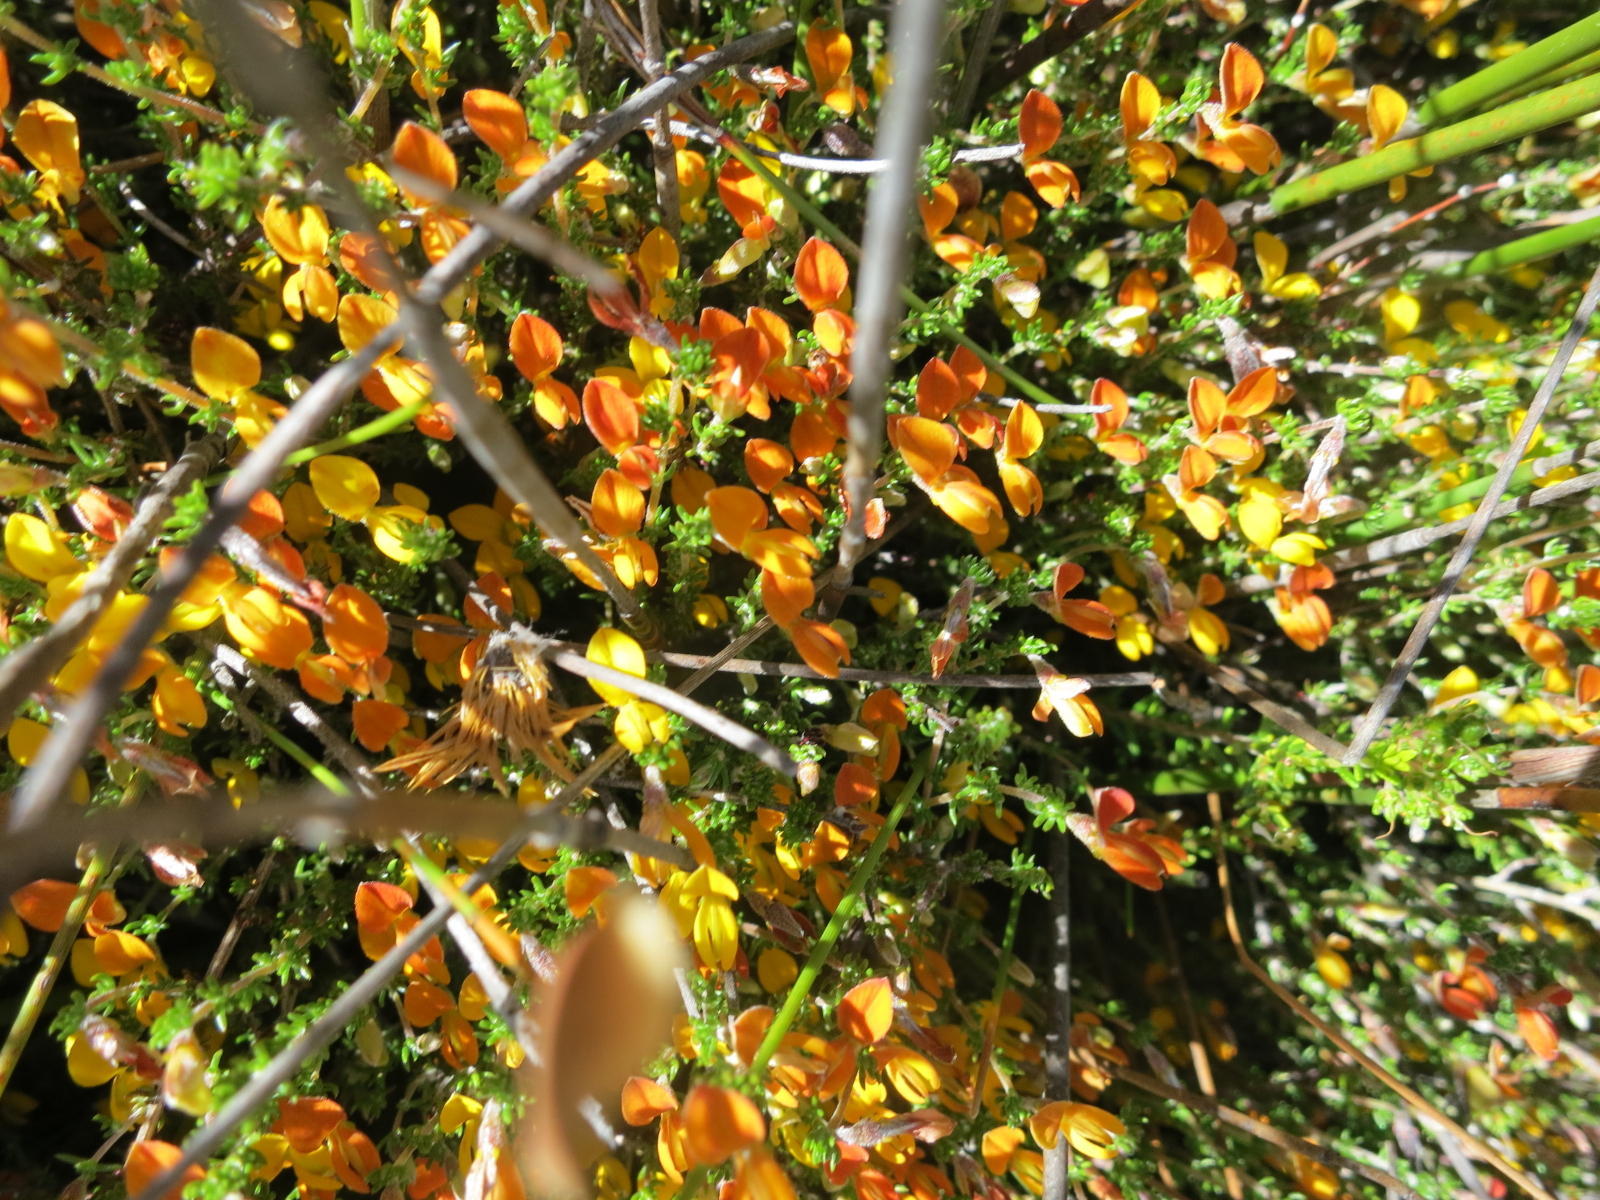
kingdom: Plantae
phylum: Tracheophyta
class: Magnoliopsida
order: Fabales
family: Fabaceae
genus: Aspalathus
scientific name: Aspalathus rubens
